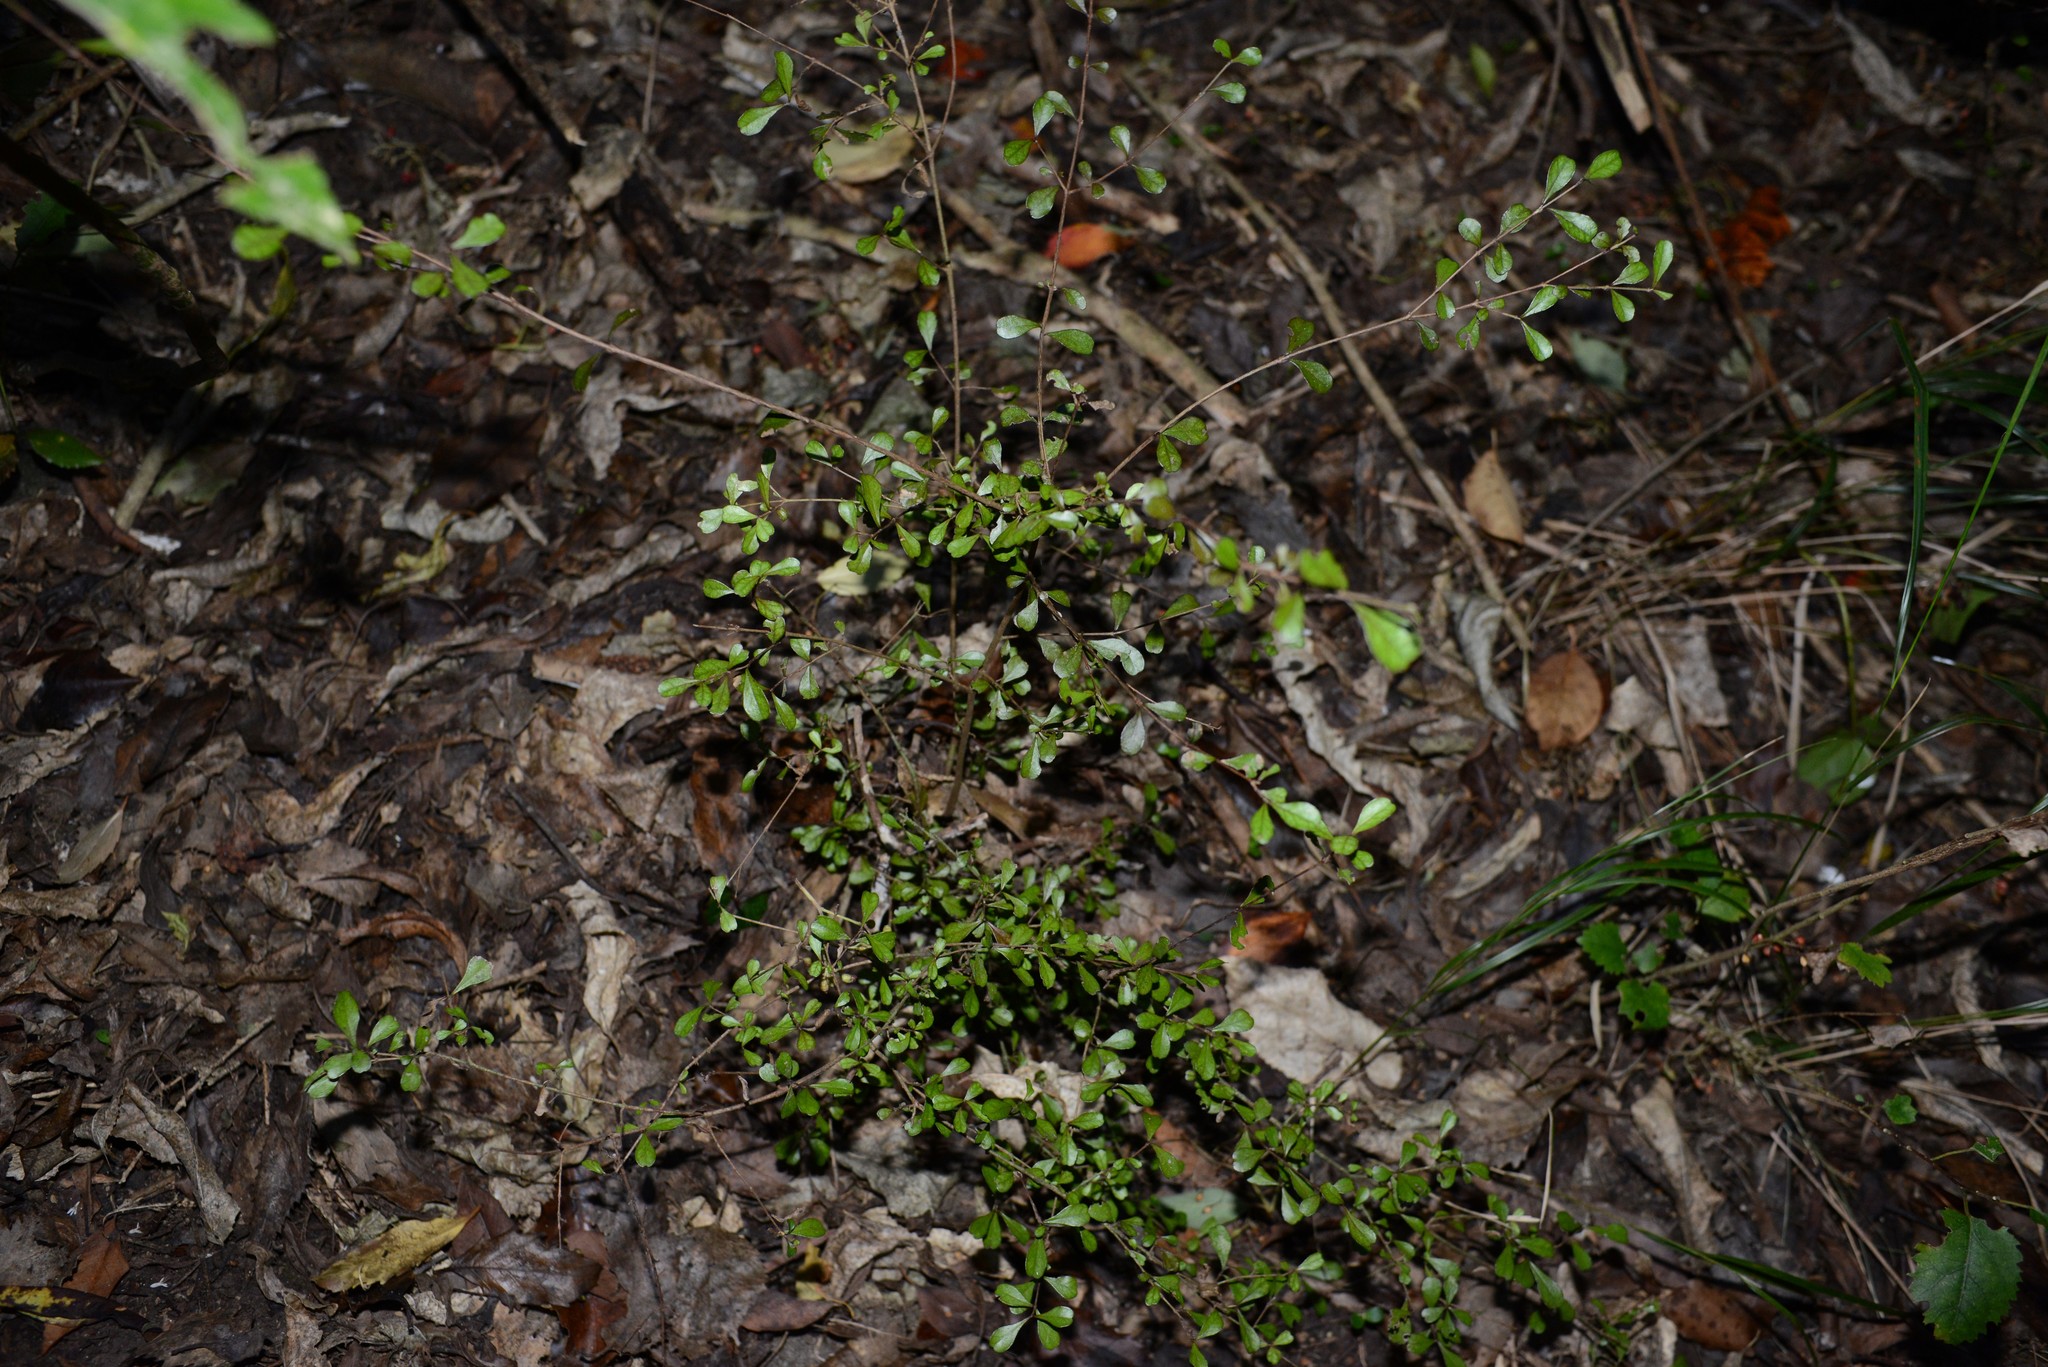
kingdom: Plantae
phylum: Tracheophyta
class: Magnoliopsida
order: Myrtales
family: Myrtaceae
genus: Lophomyrtus
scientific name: Lophomyrtus obcordata
